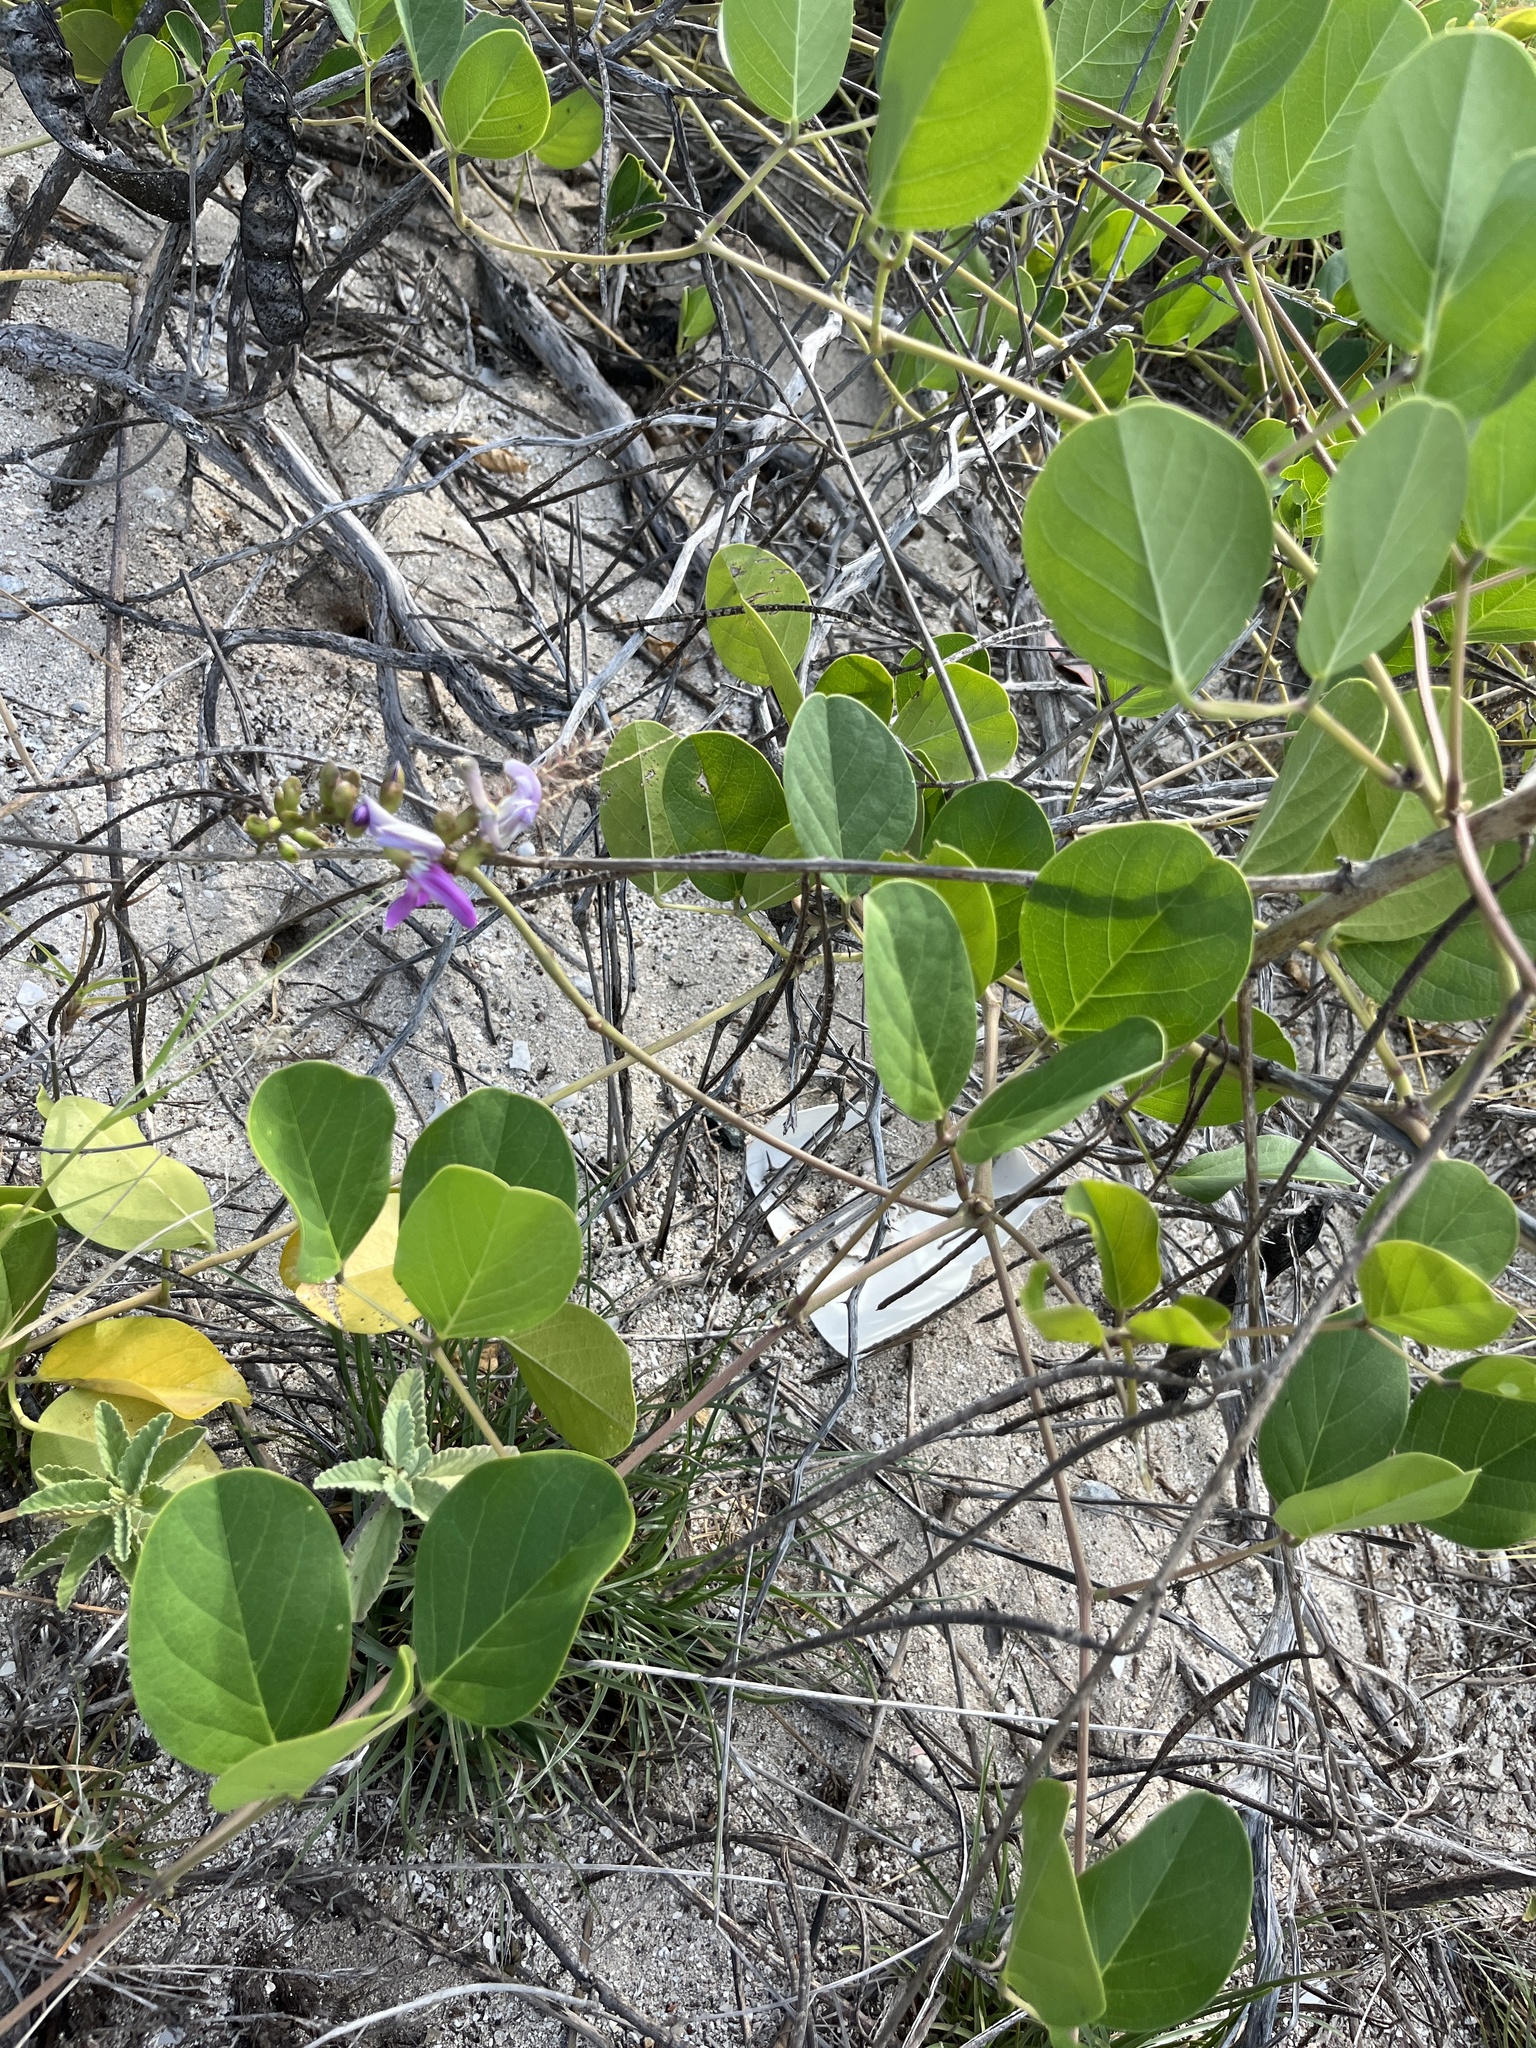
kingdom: Plantae
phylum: Tracheophyta
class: Magnoliopsida
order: Fabales
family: Fabaceae
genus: Canavalia
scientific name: Canavalia rosea
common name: Beach-bean
